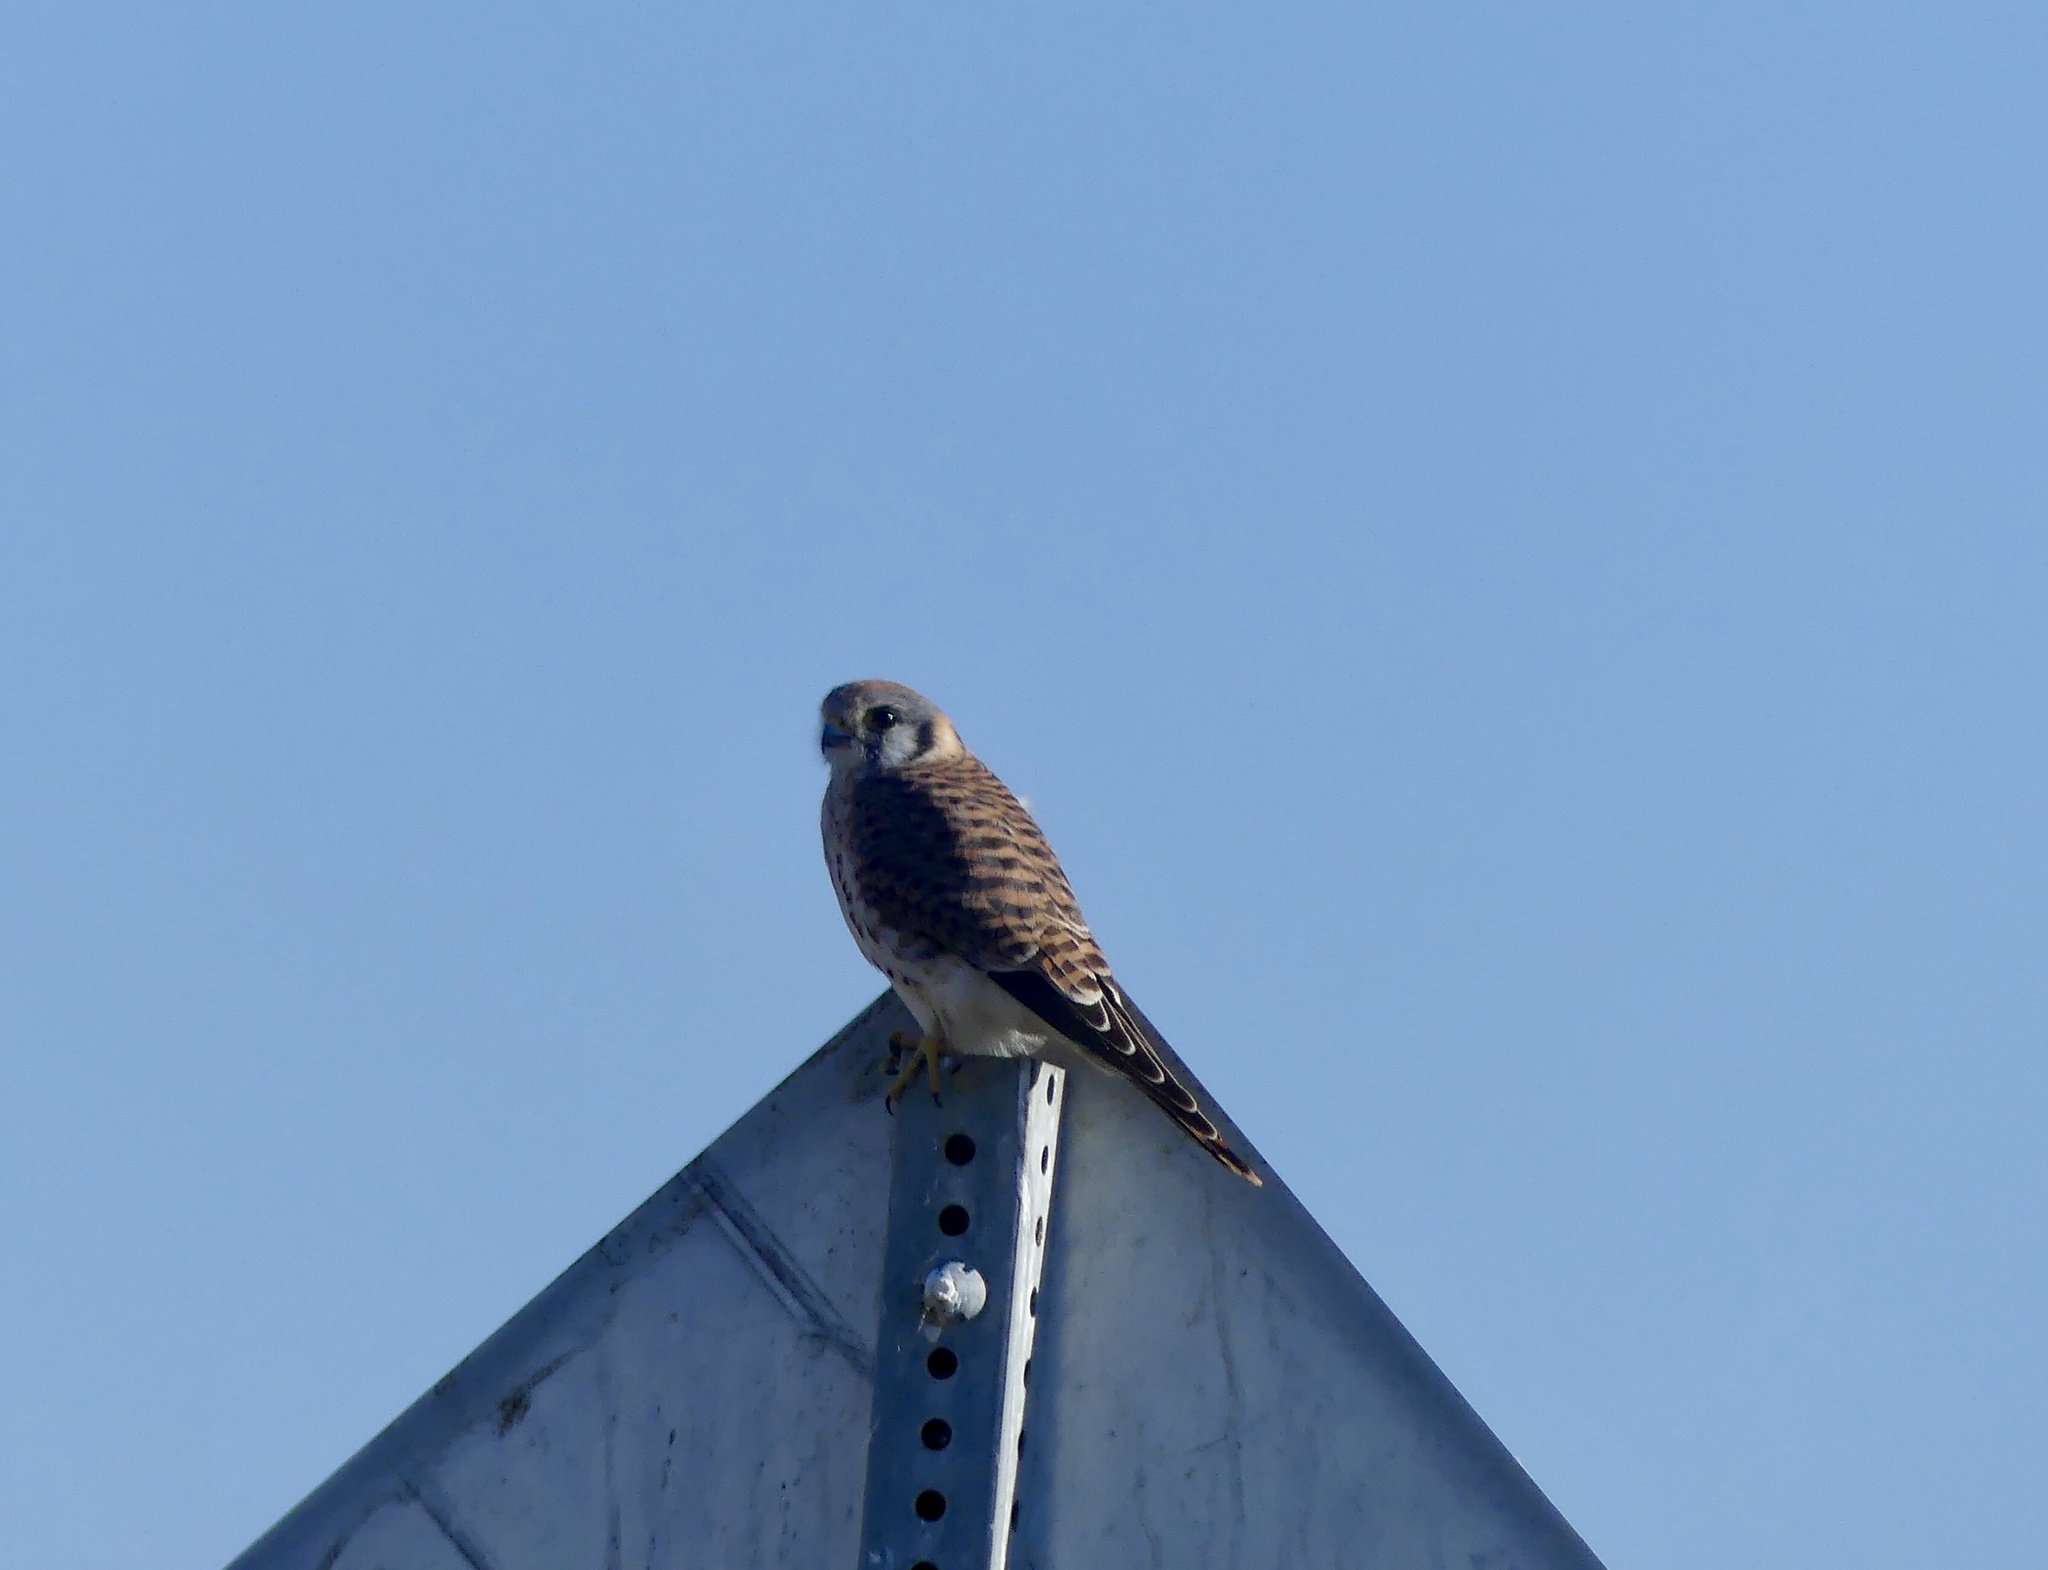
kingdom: Animalia
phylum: Chordata
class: Aves
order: Falconiformes
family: Falconidae
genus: Falco
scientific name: Falco sparverius
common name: American kestrel
